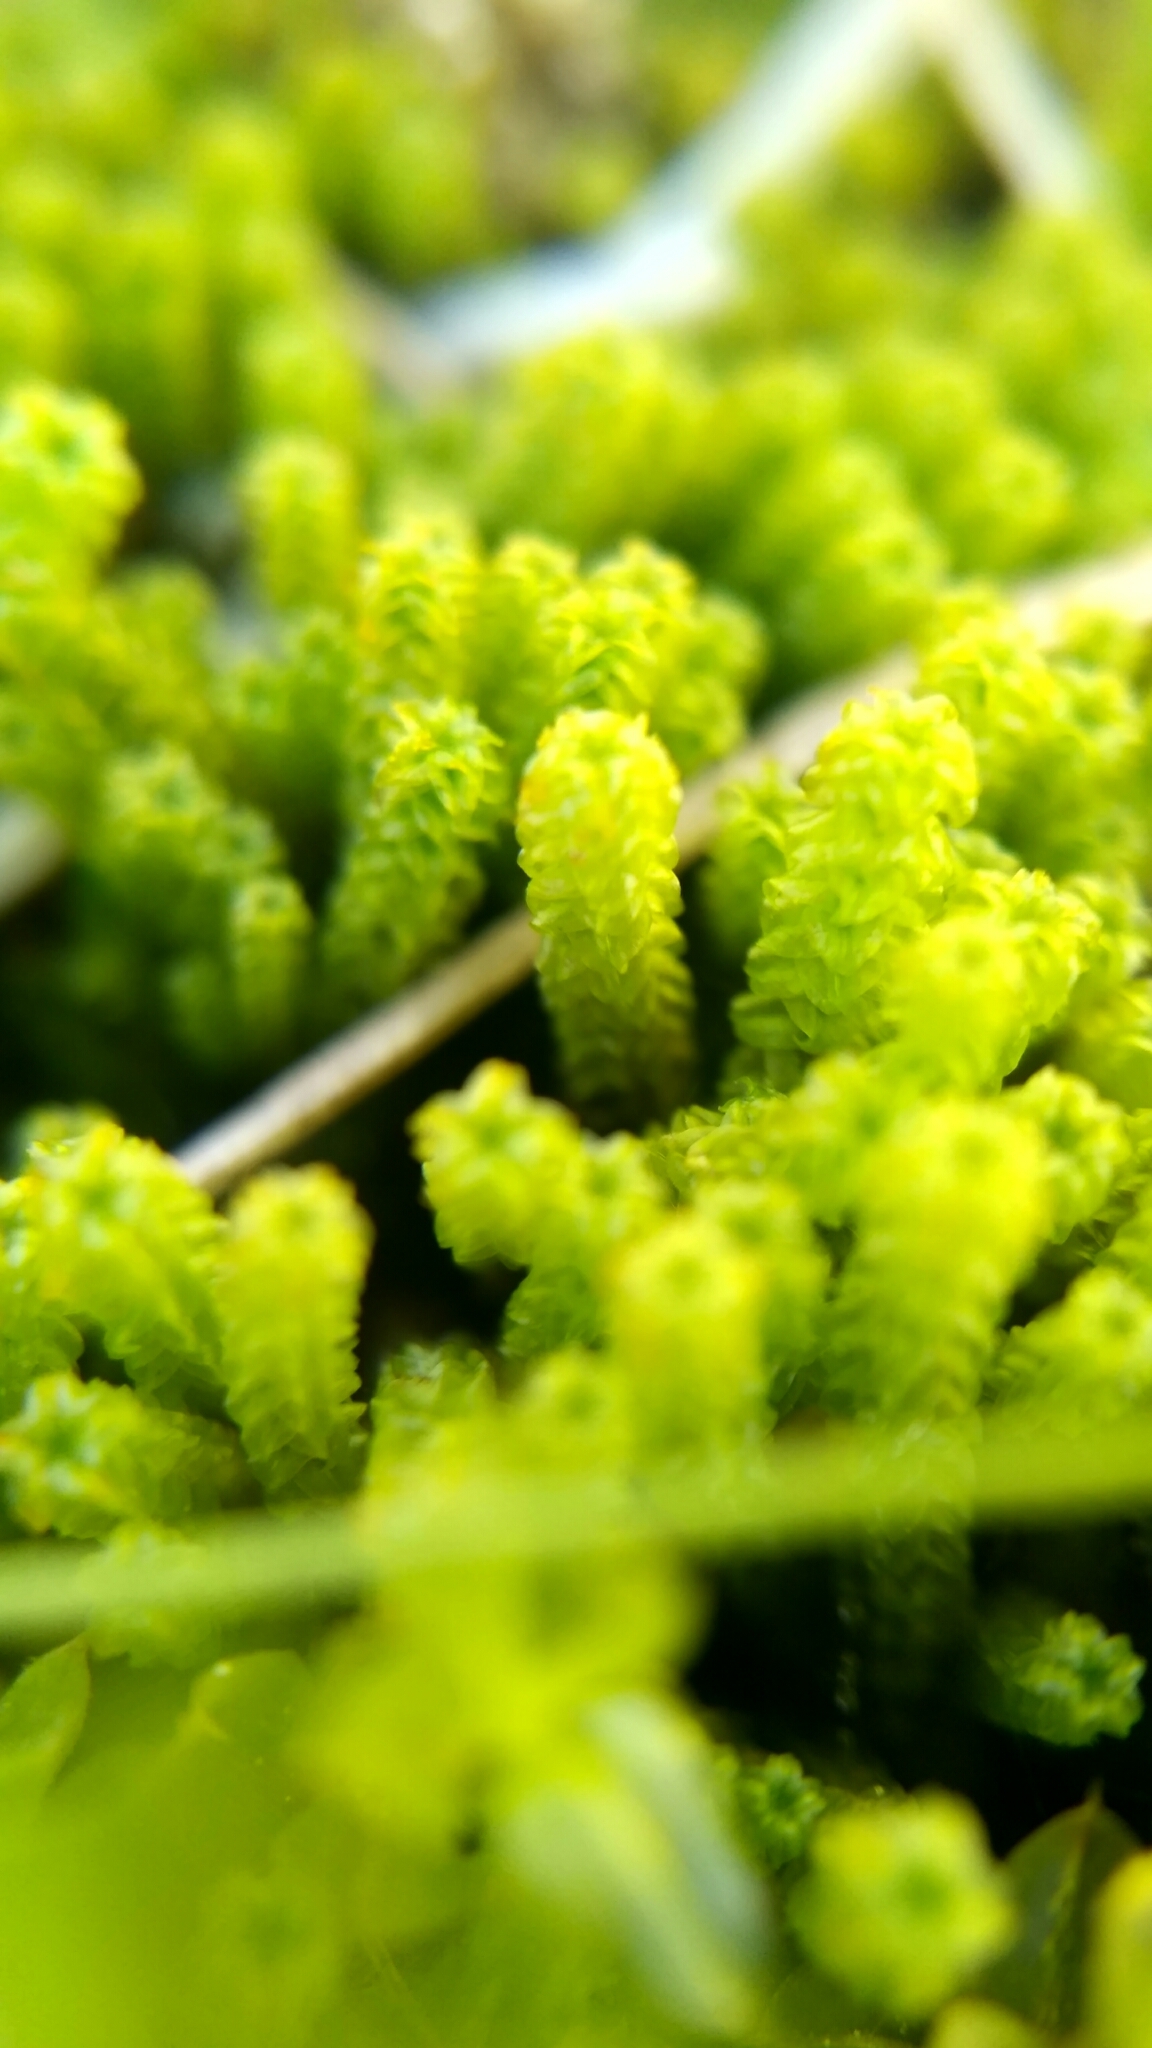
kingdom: Plantae
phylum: Bryophyta
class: Bryopsida
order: Splachnales
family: Meesiaceae
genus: Paludella
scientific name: Paludella squarrosa
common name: Tufted fen moss
